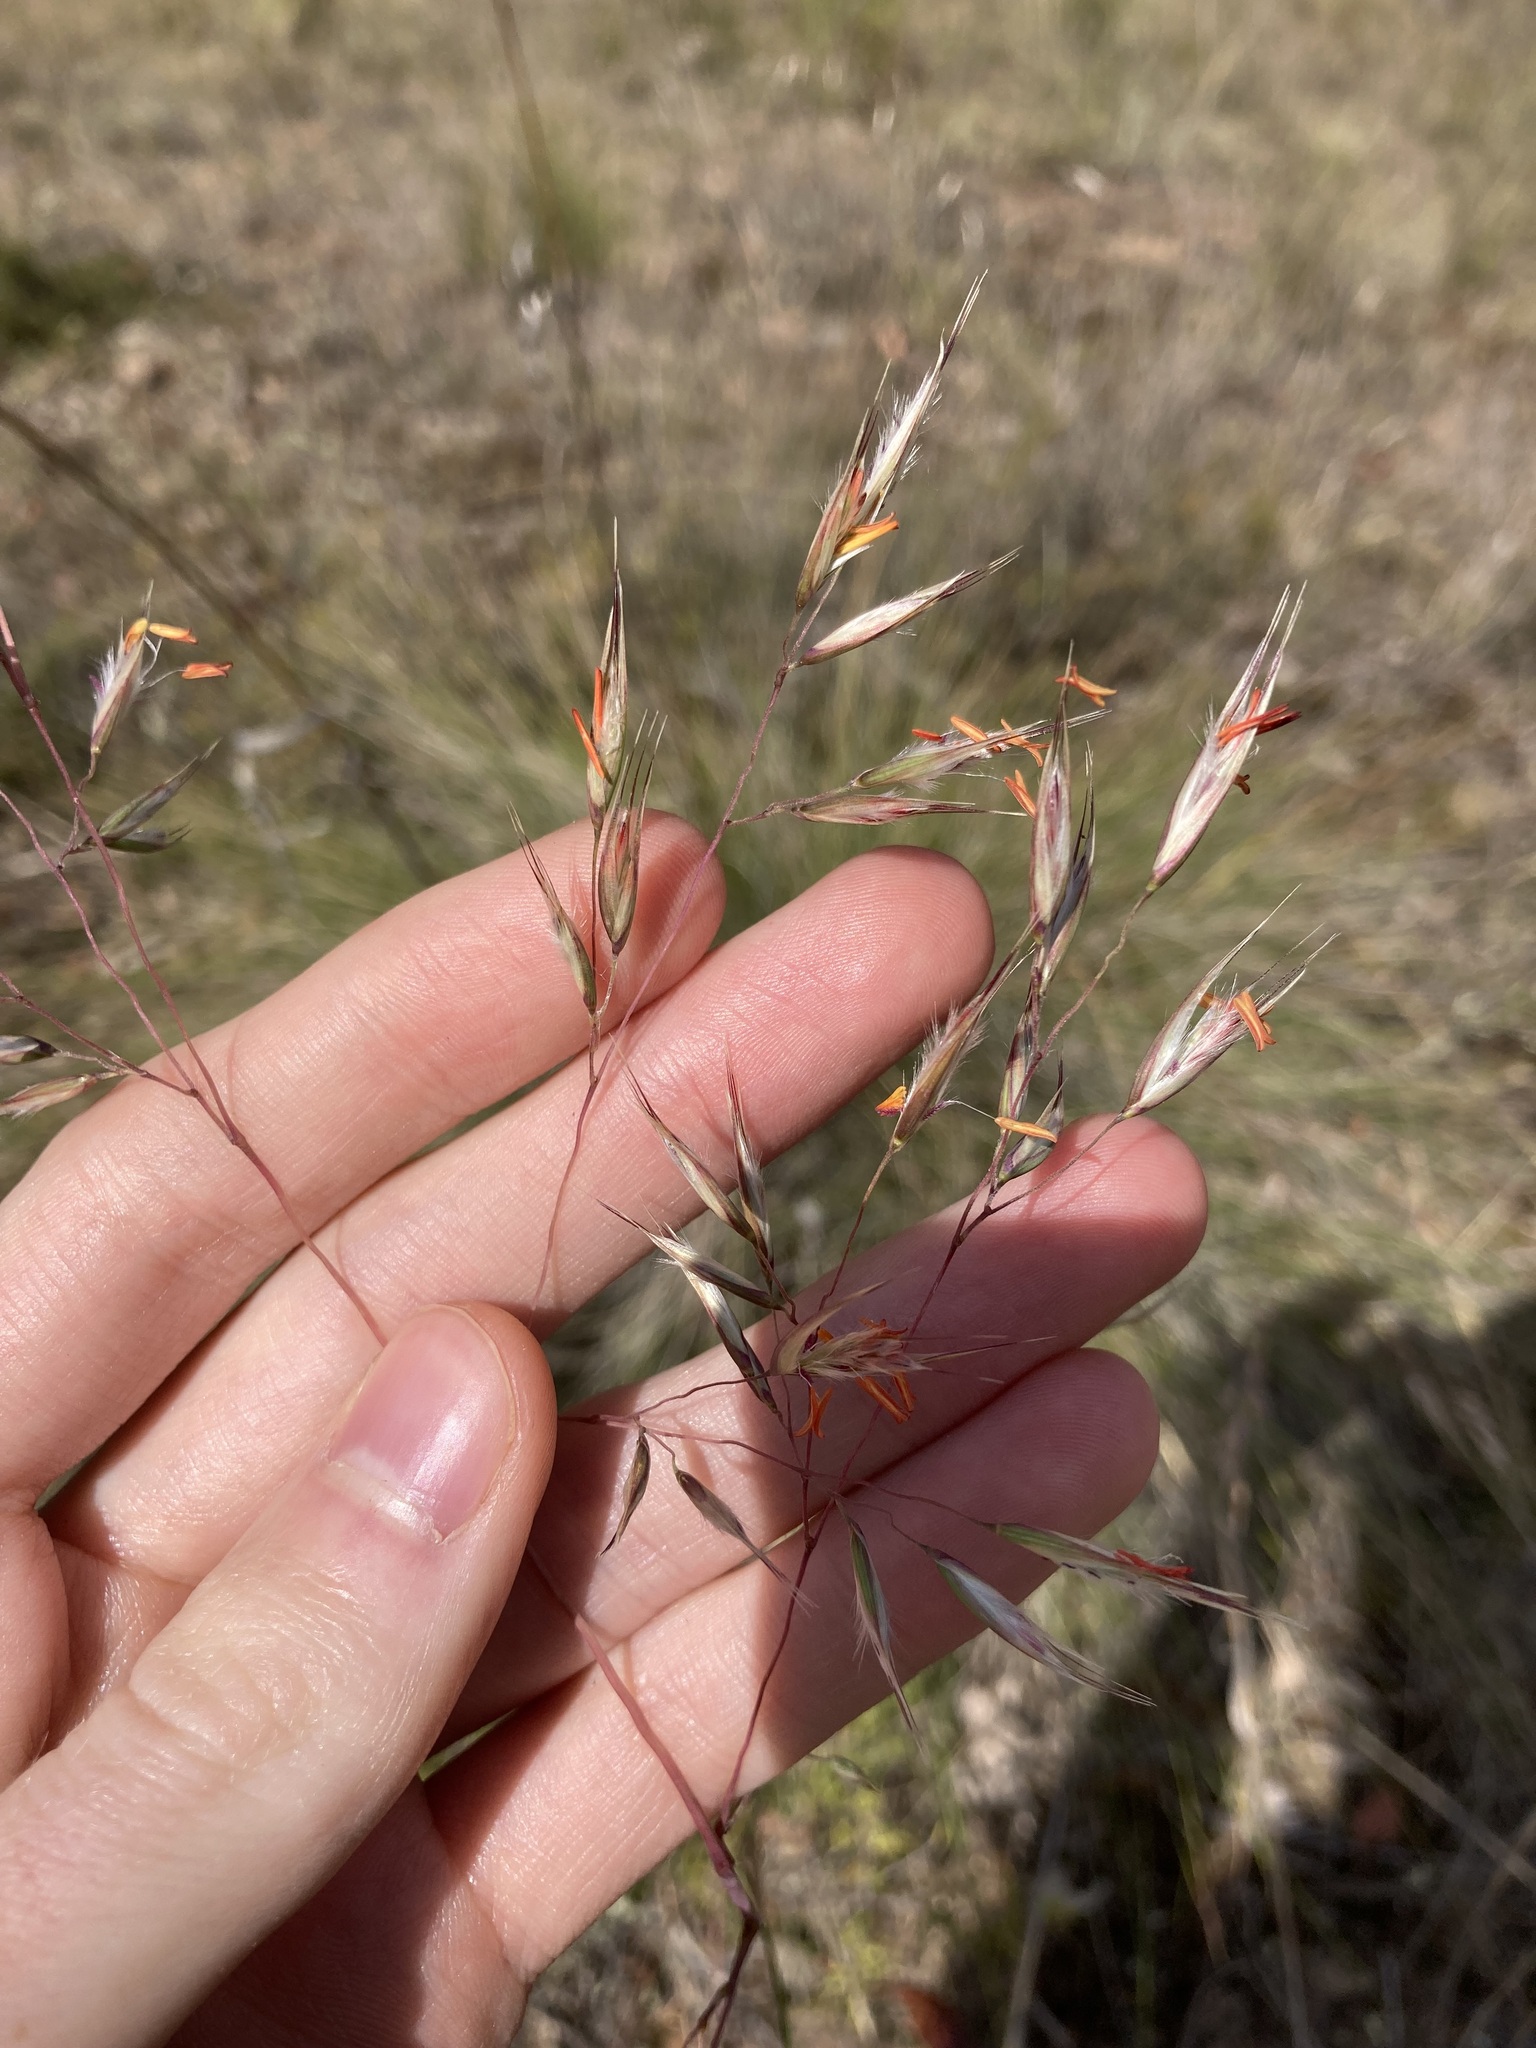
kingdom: Plantae
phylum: Tracheophyta
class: Liliopsida
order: Poales
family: Poaceae
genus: Rytidosperma
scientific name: Rytidosperma pallidum
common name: Red-anther wallaby grass
